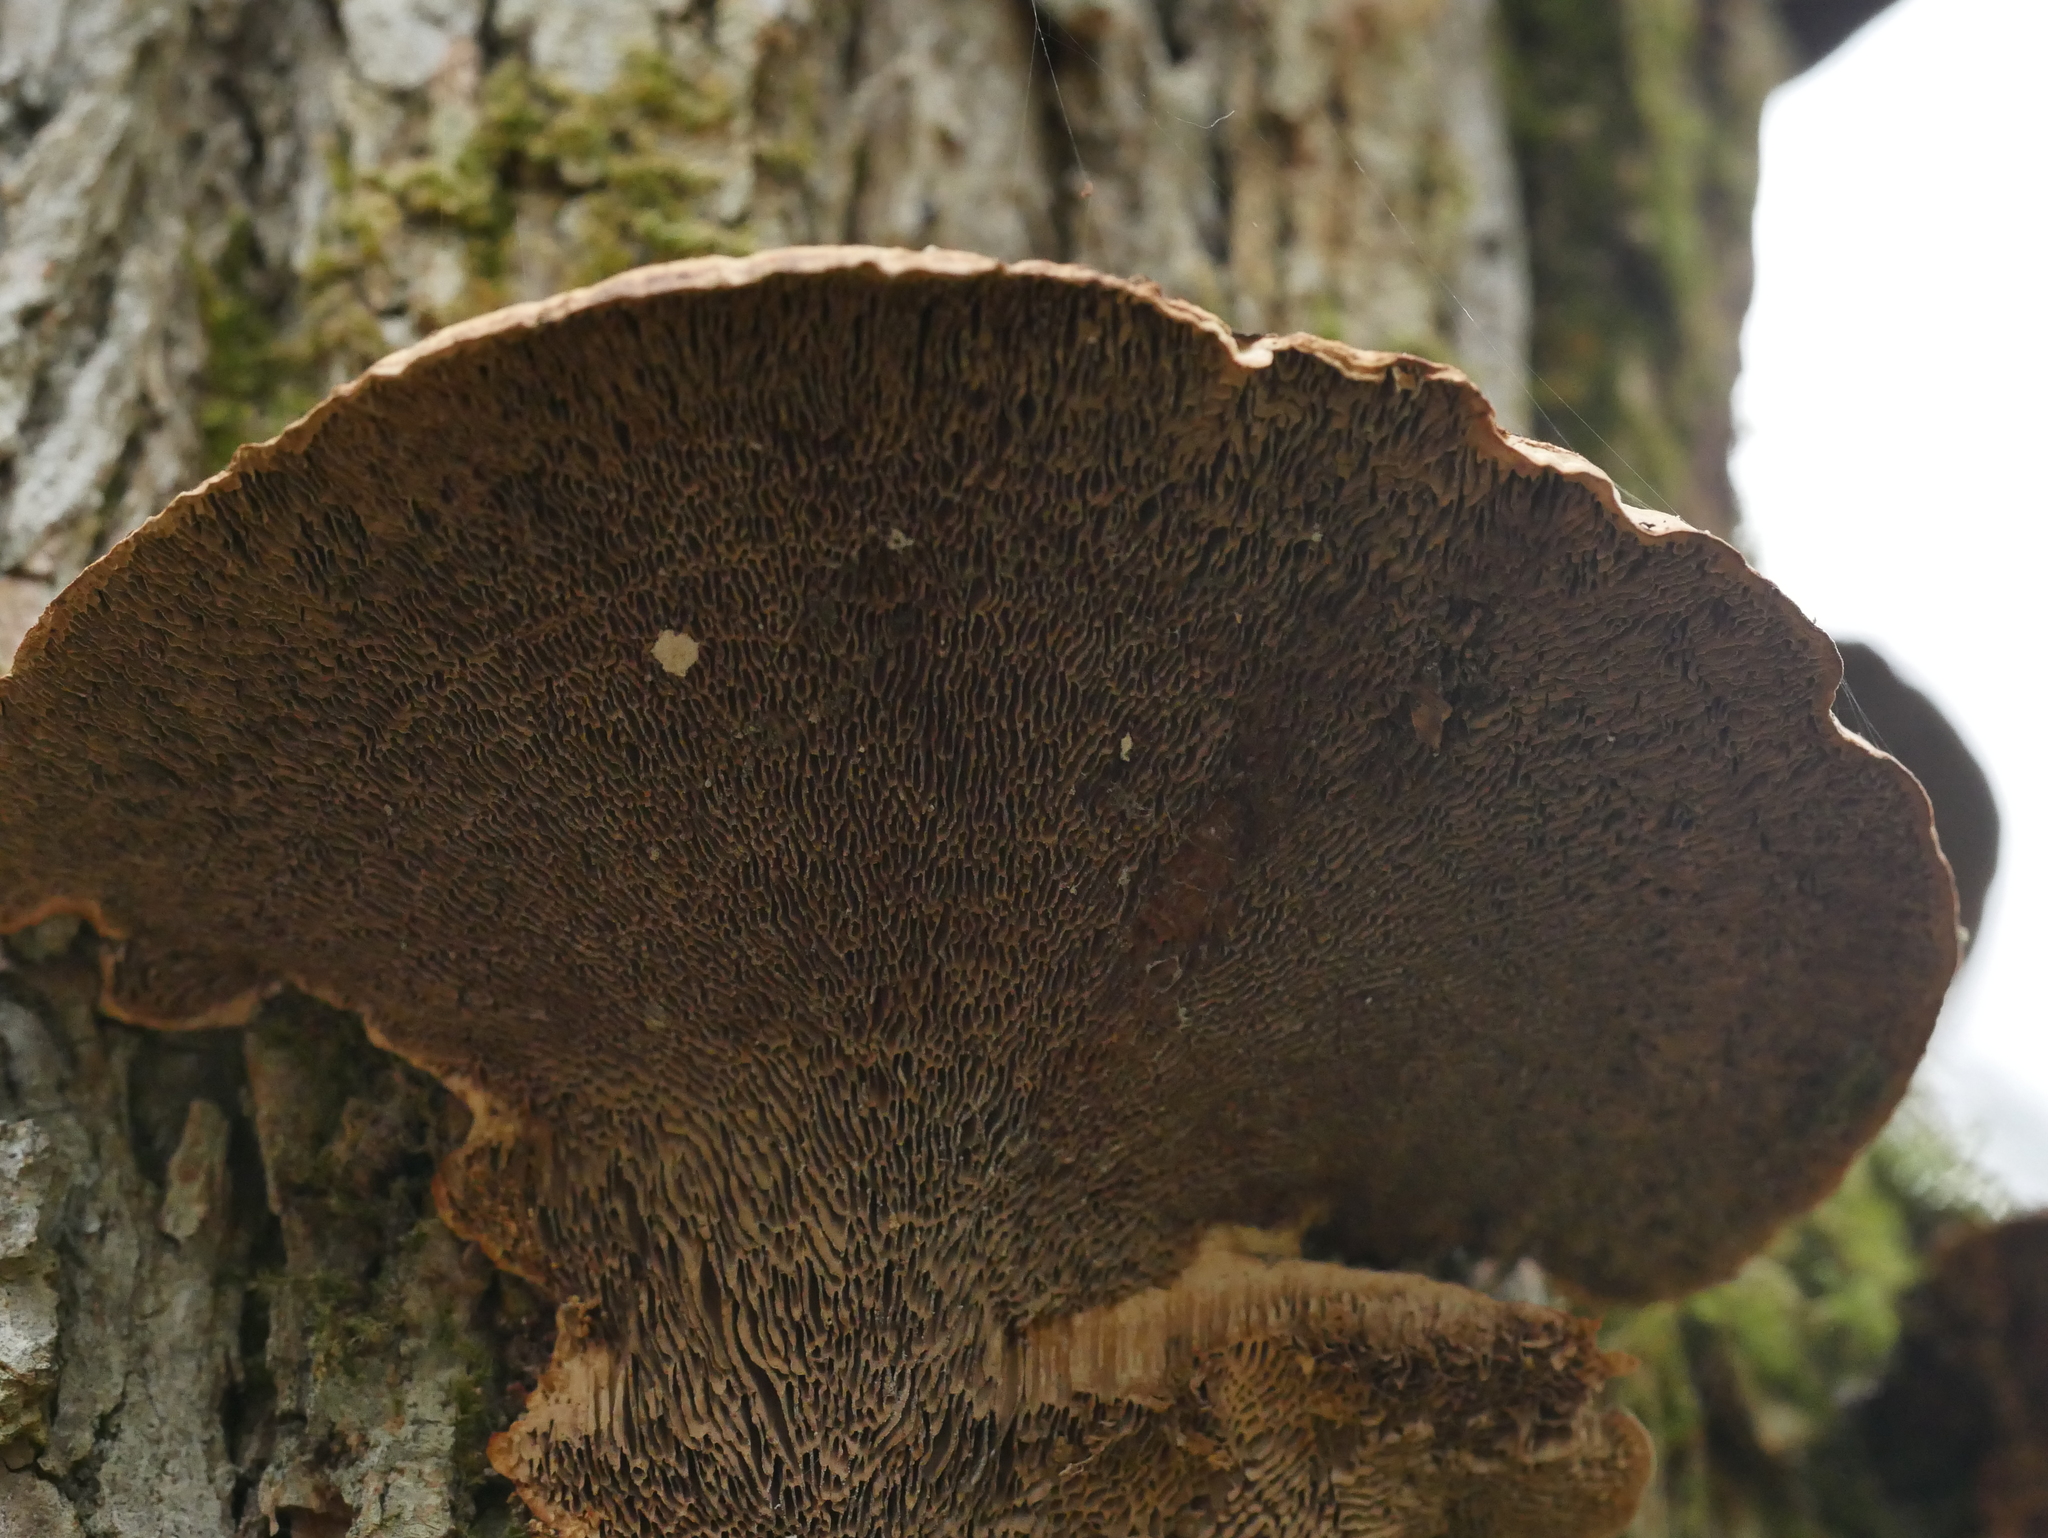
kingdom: Fungi
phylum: Basidiomycota
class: Agaricomycetes
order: Polyporales
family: Polyporaceae
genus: Daedaleopsis
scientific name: Daedaleopsis confragosa
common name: Blushing bracket
